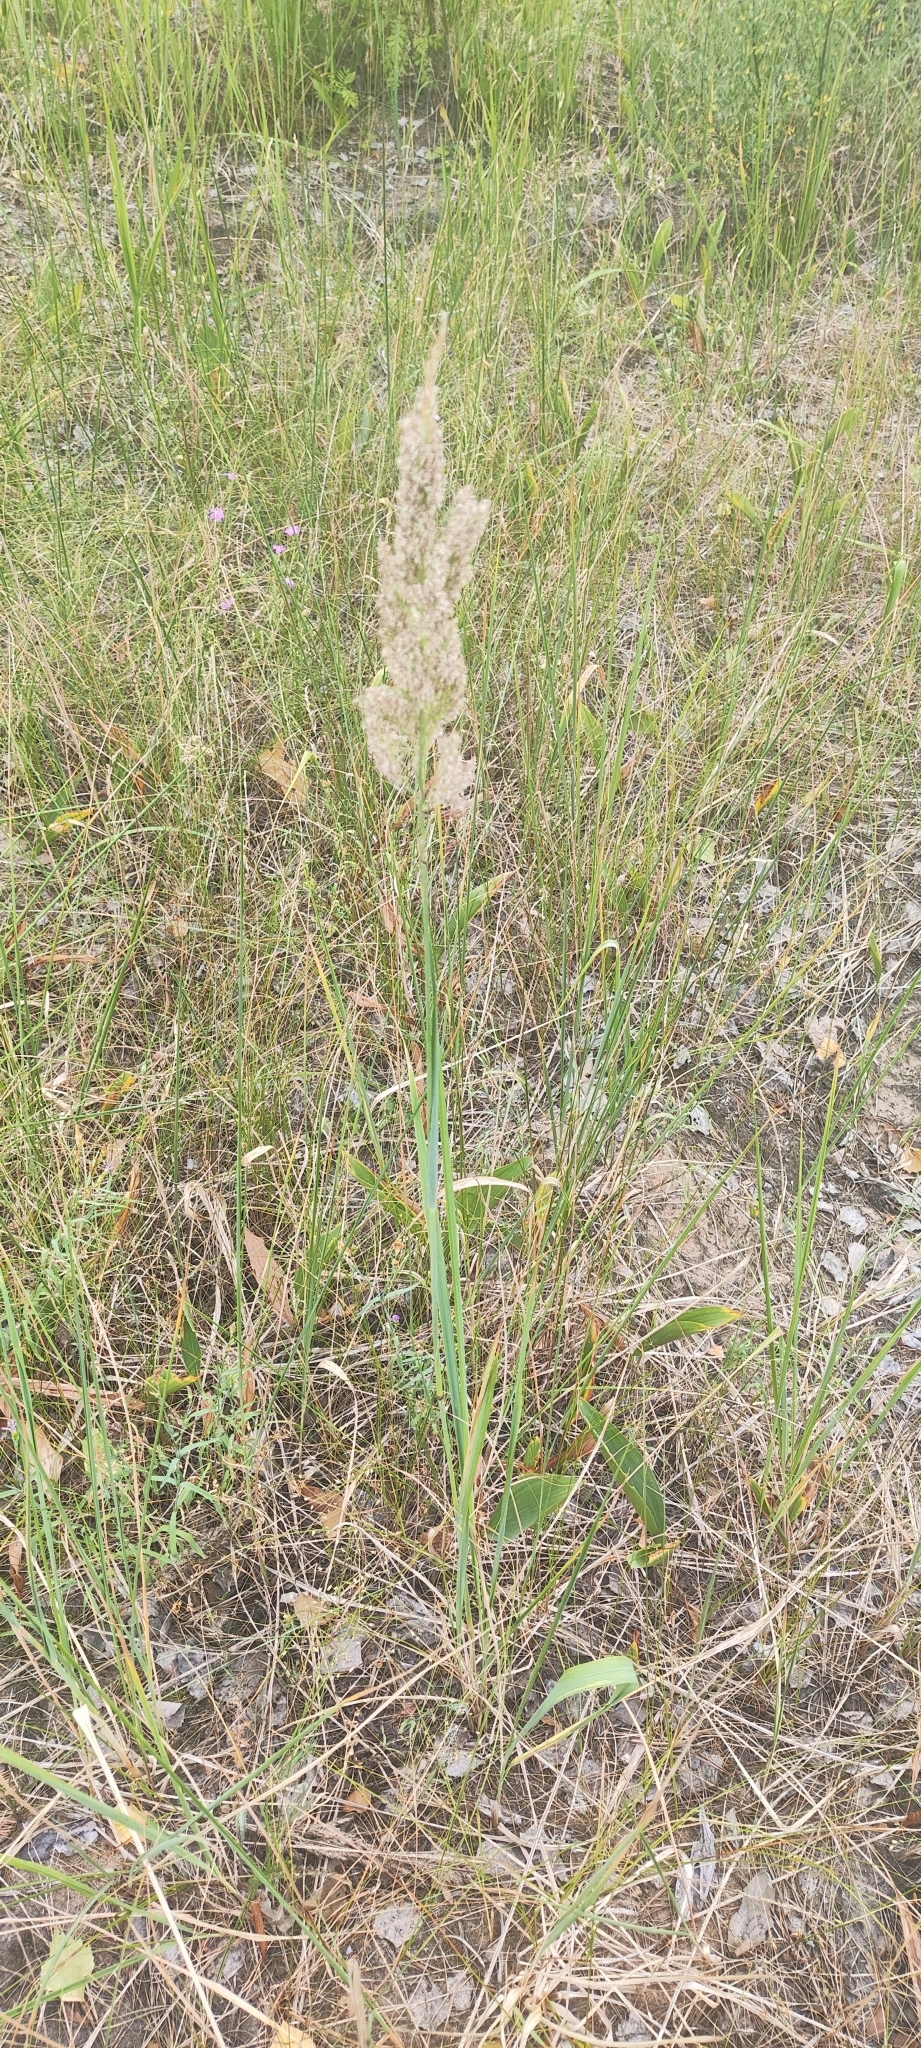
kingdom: Plantae
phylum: Tracheophyta
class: Liliopsida
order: Poales
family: Poaceae
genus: Calamagrostis
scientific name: Calamagrostis epigejos
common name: Wood small-reed
